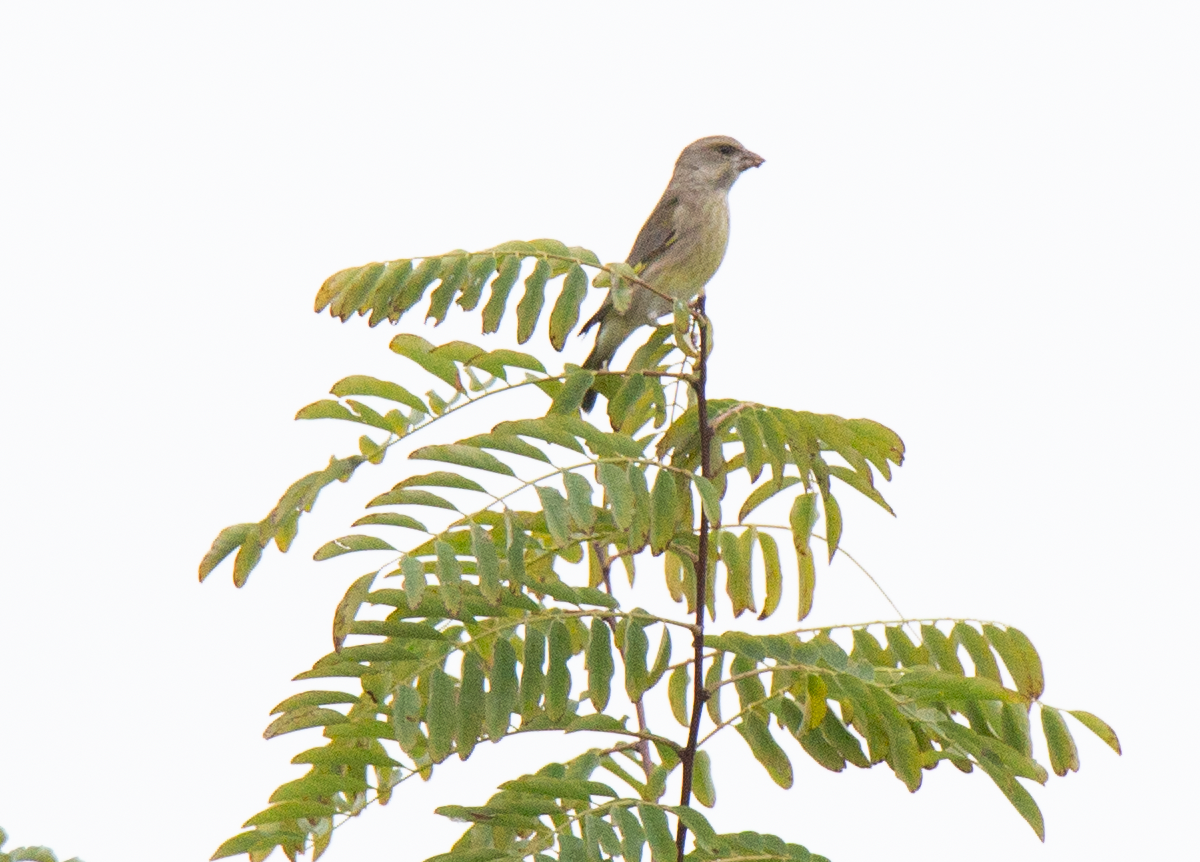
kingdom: Plantae
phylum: Tracheophyta
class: Liliopsida
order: Poales
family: Poaceae
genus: Chloris
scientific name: Chloris chloris
